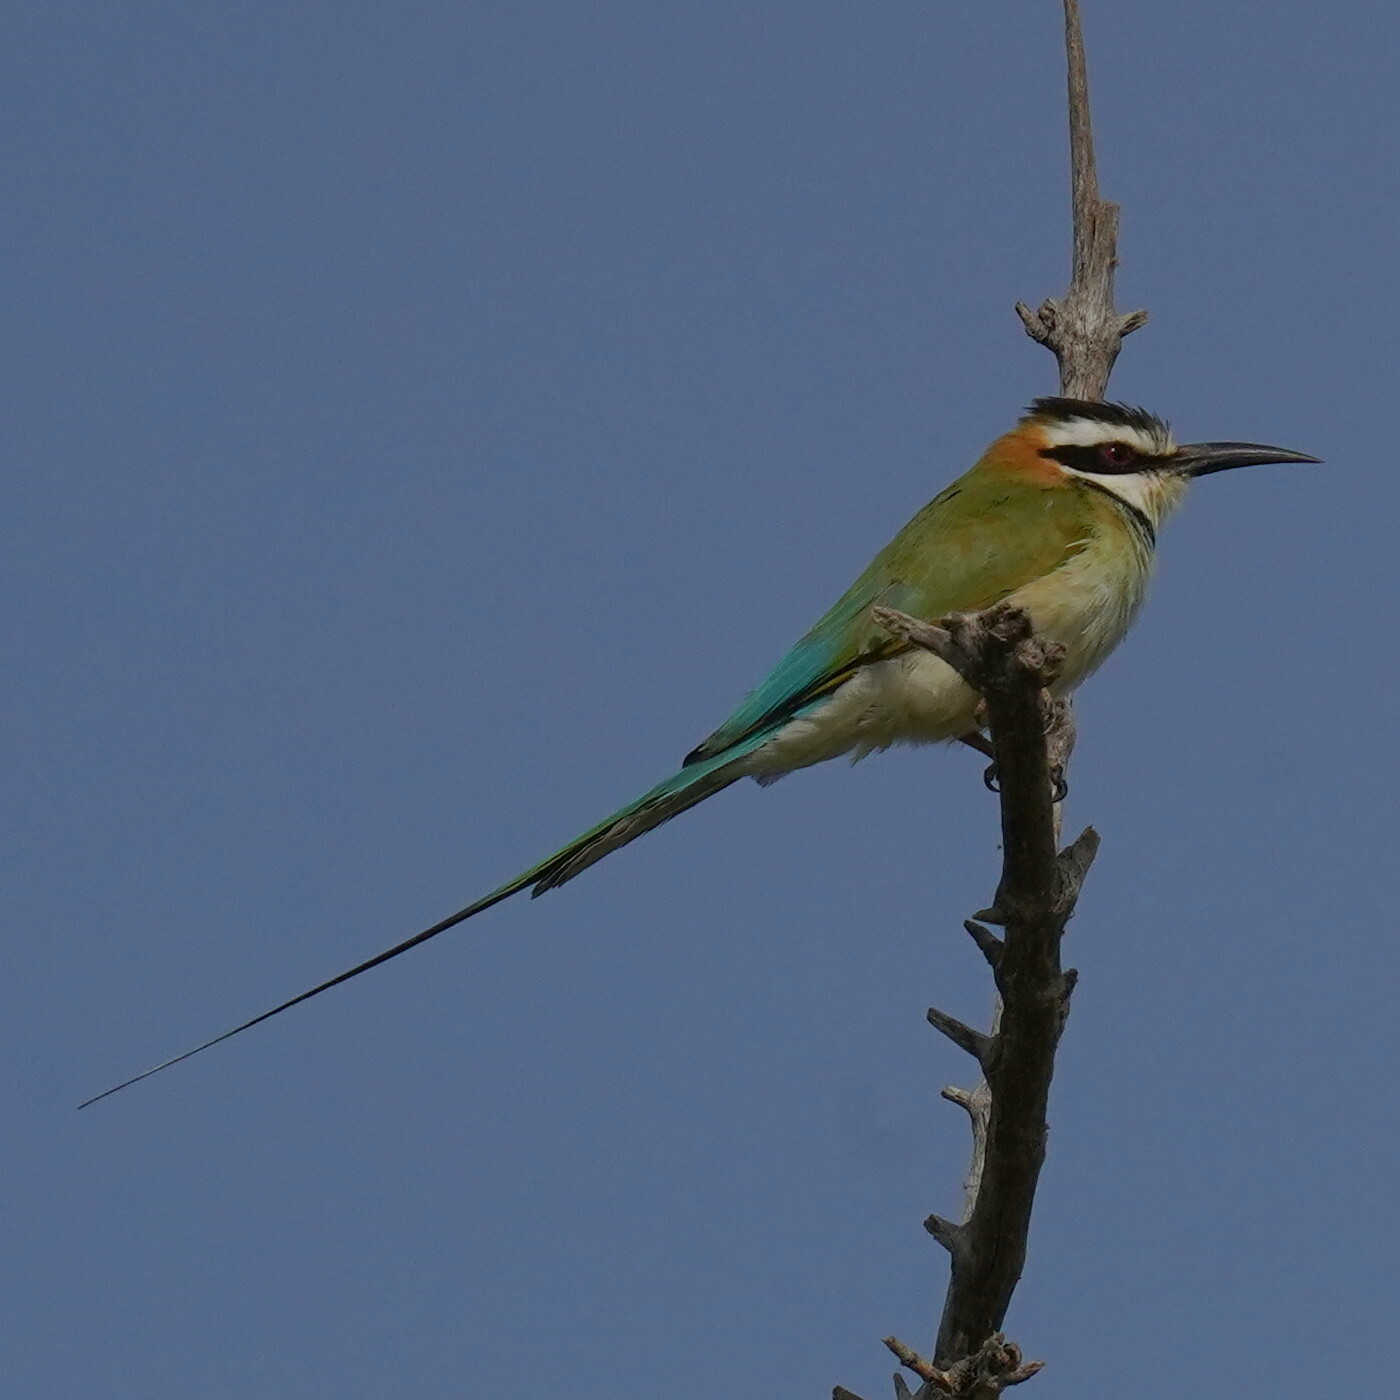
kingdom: Animalia
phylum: Chordata
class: Aves
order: Coraciiformes
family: Meropidae
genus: Merops
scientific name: Merops albicollis
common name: White-throated bee-eater
